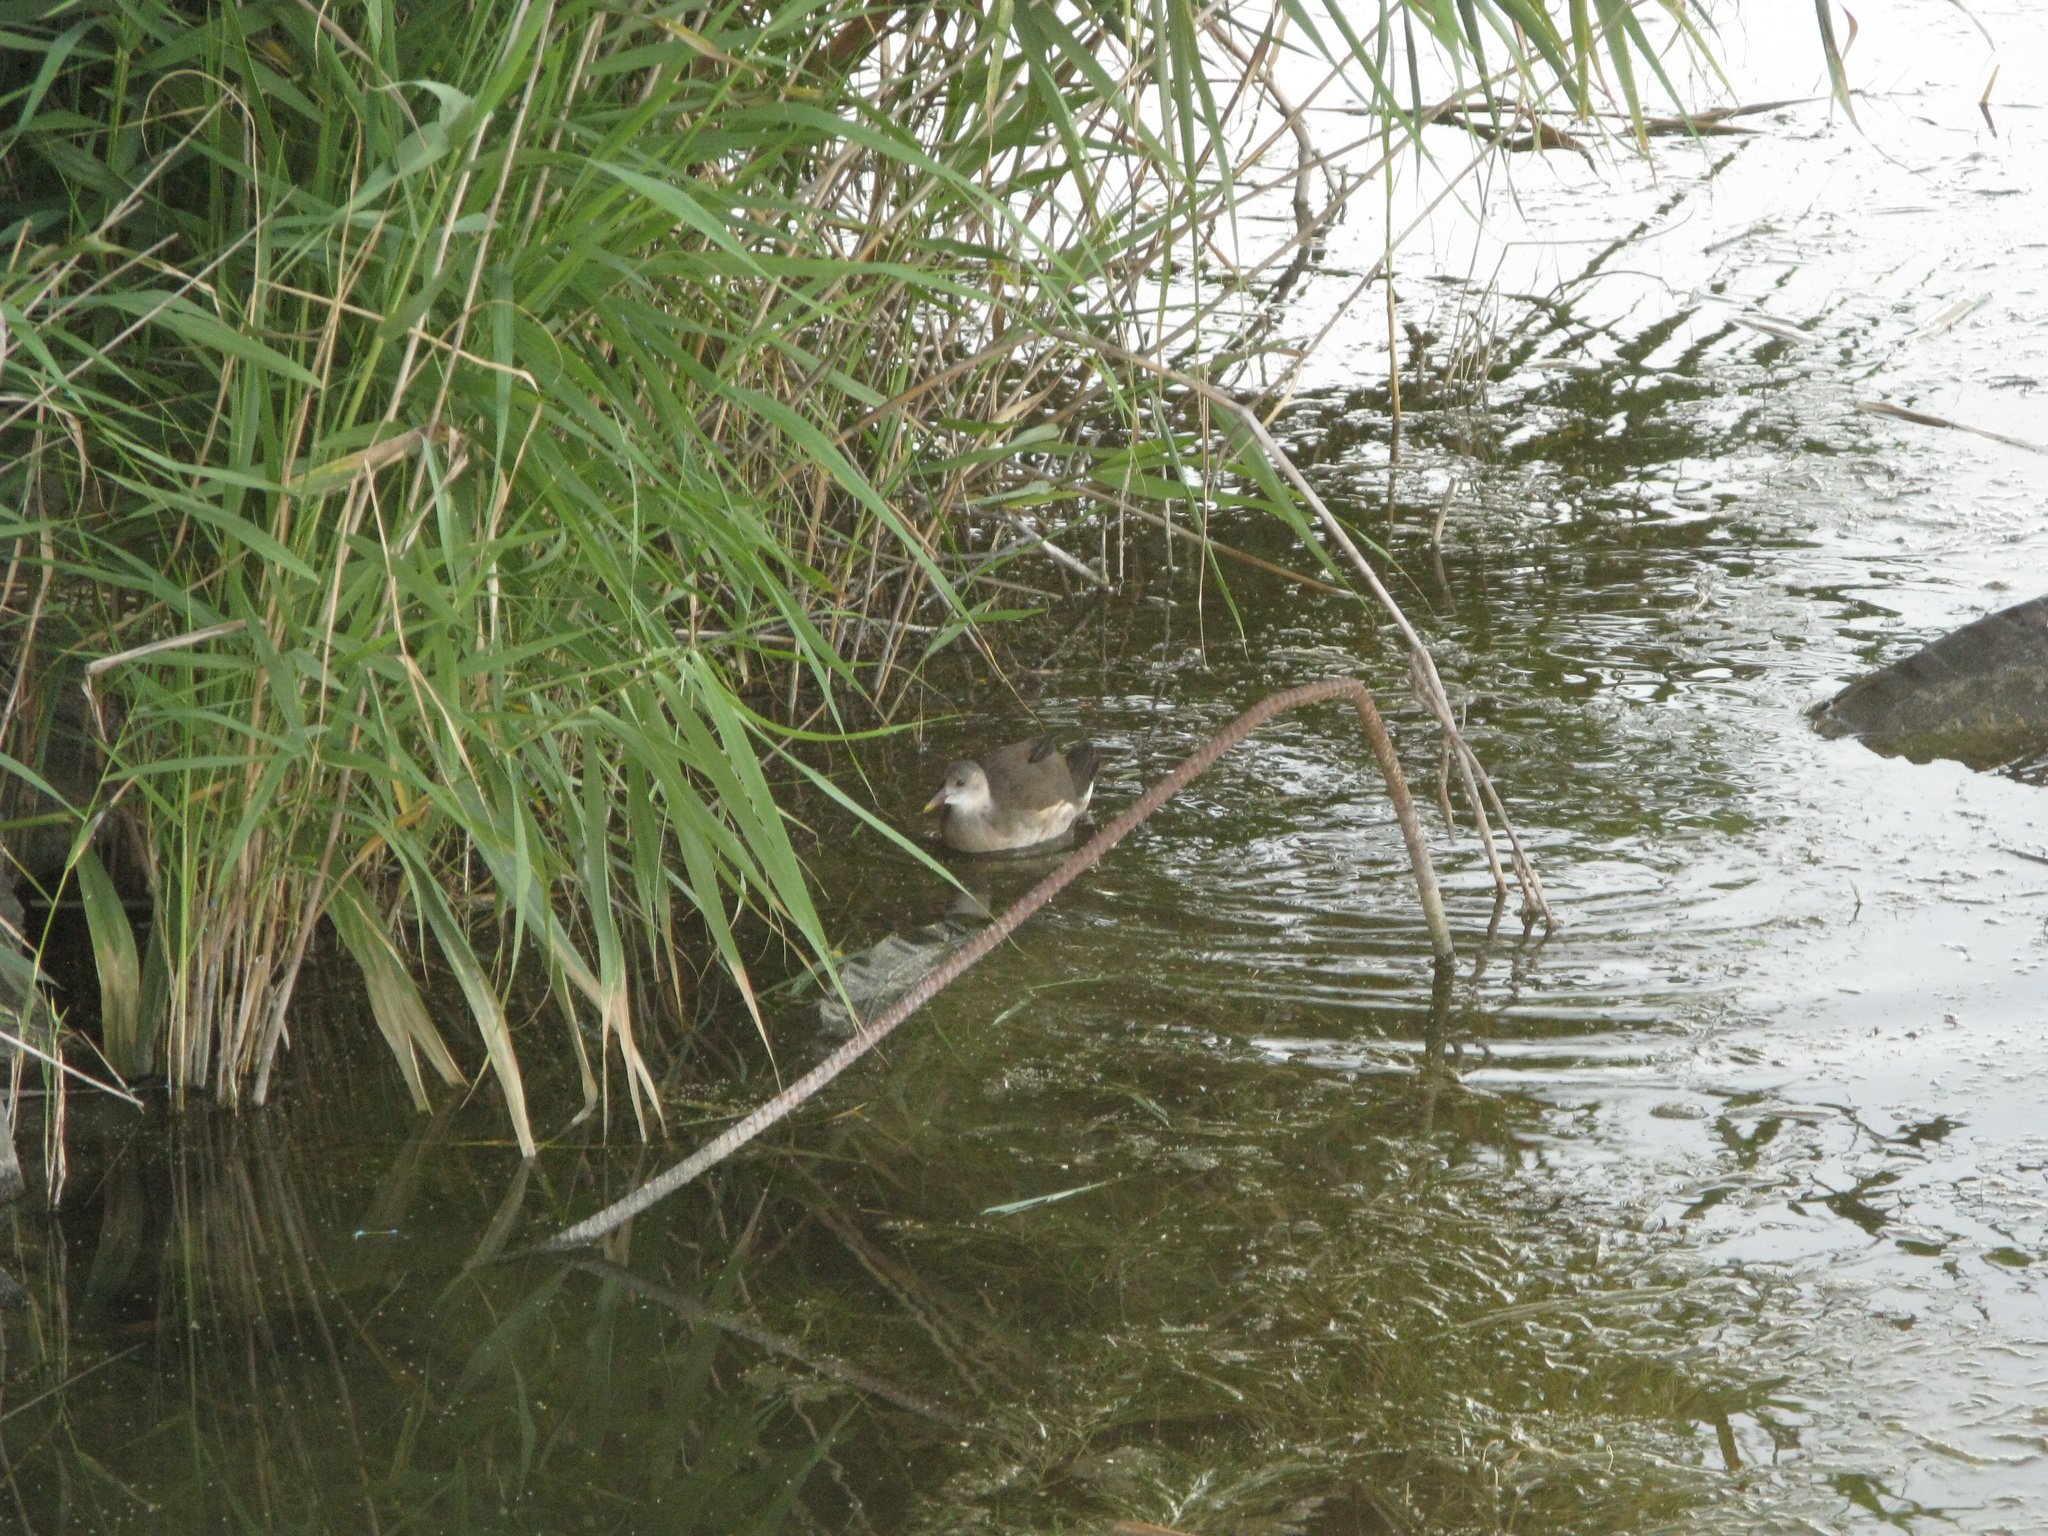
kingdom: Animalia
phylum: Chordata
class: Aves
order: Gruiformes
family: Rallidae
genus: Gallinula
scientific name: Gallinula chloropus
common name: Common moorhen
